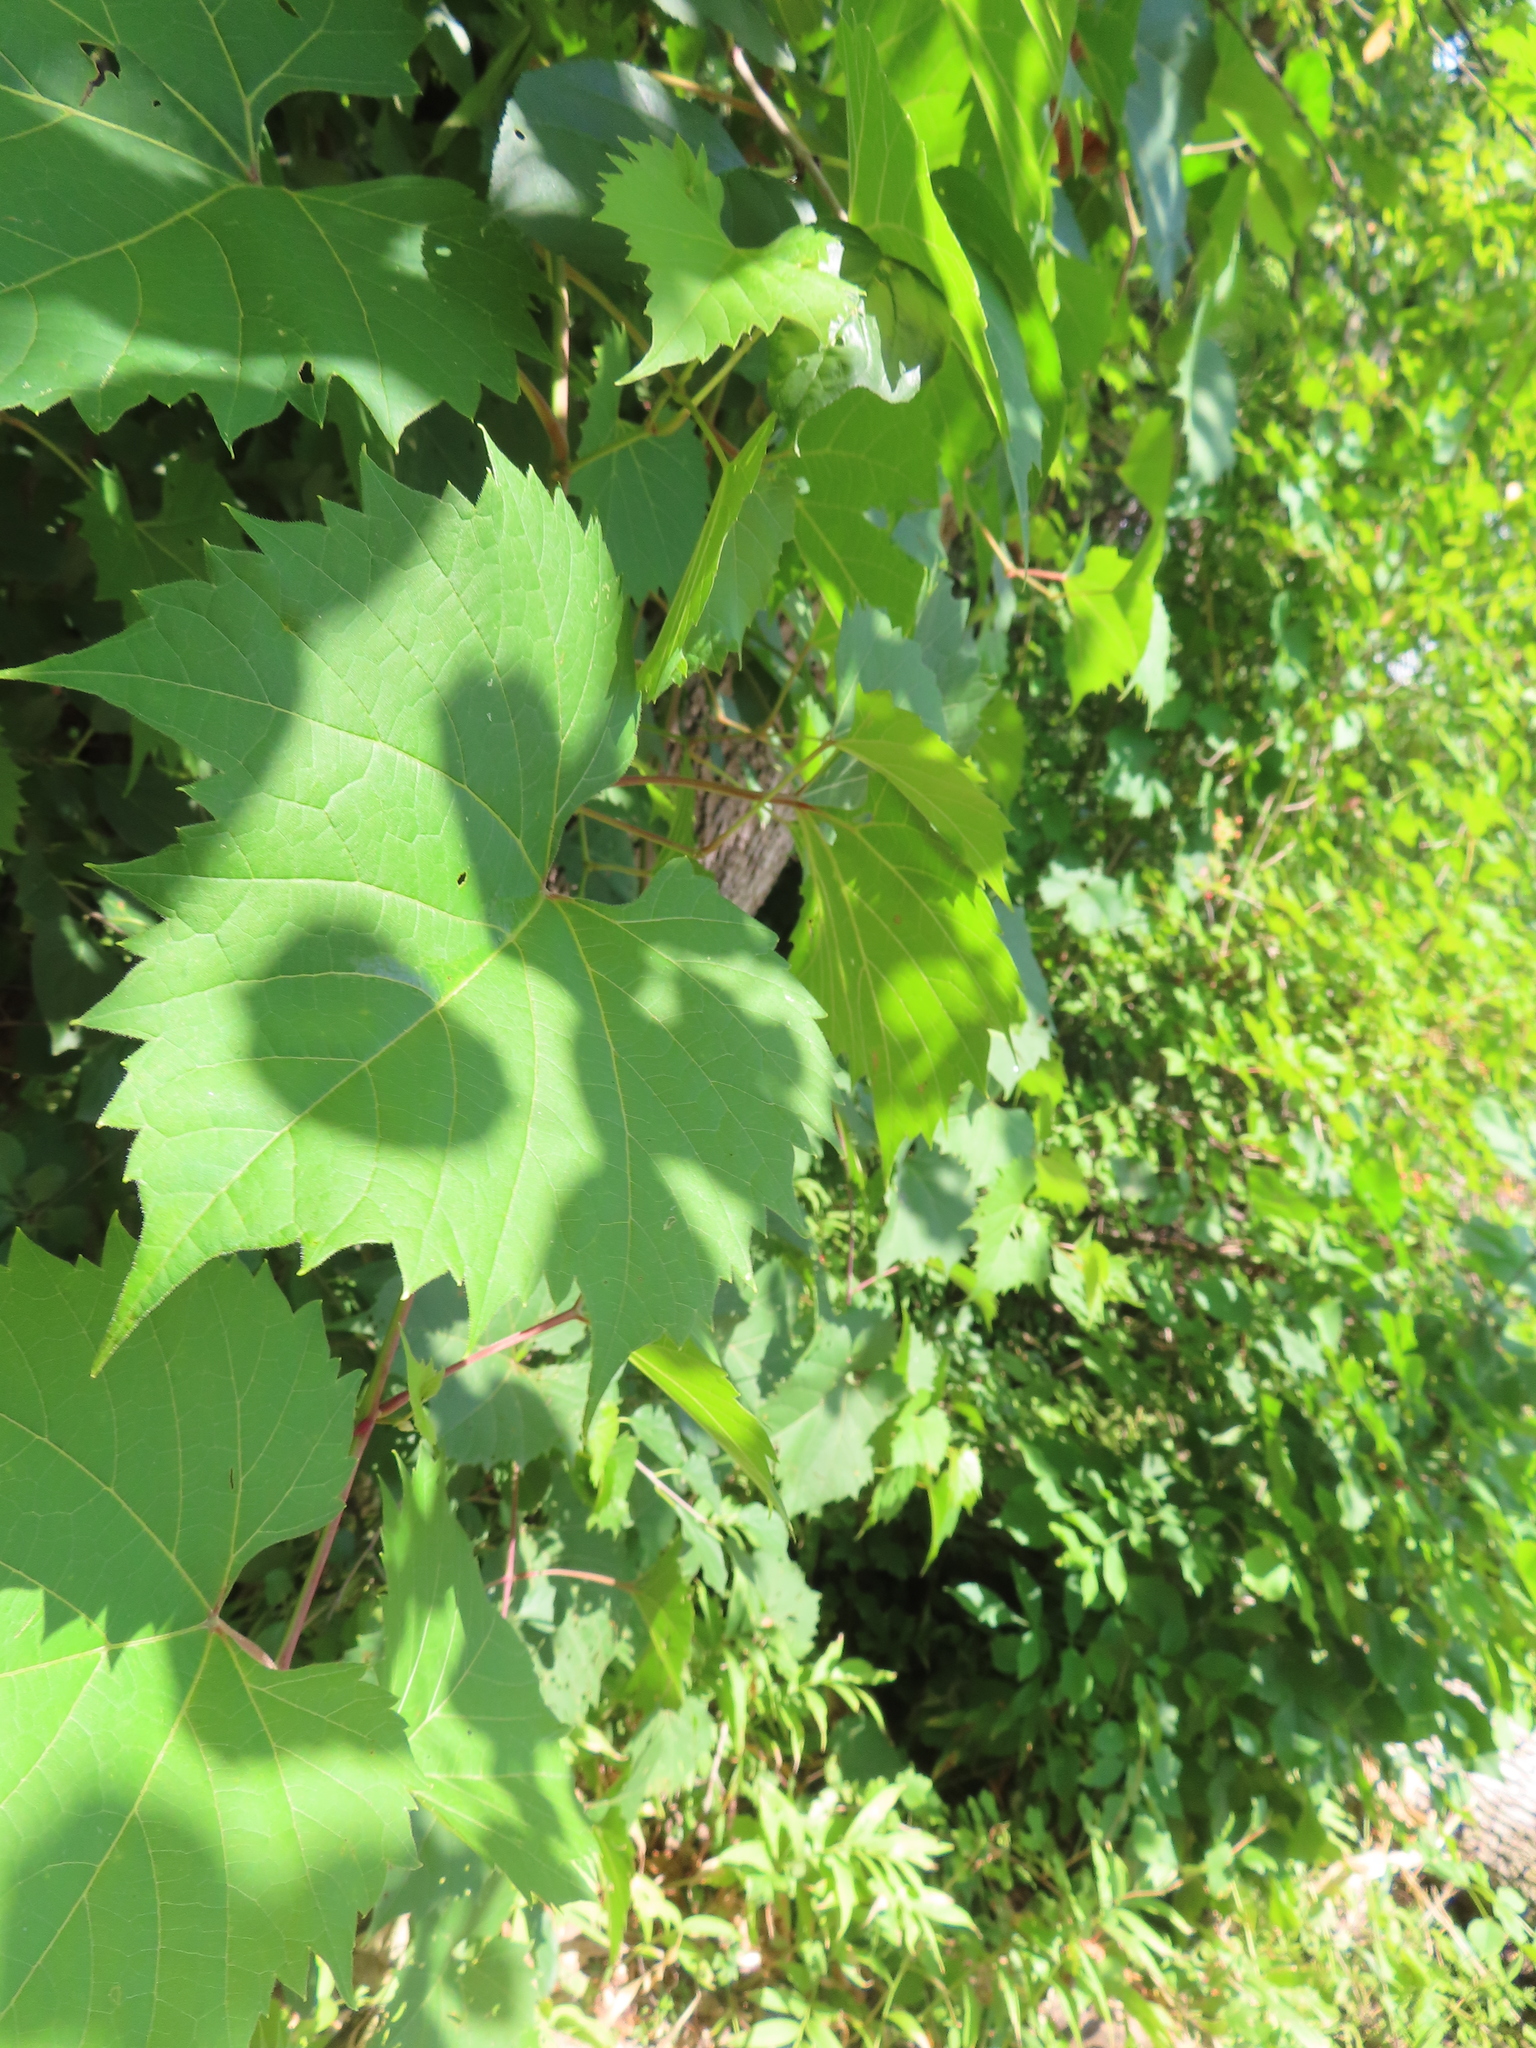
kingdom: Plantae
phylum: Tracheophyta
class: Magnoliopsida
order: Vitales
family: Vitaceae
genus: Vitis
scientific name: Vitis riparia
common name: Frost grape
